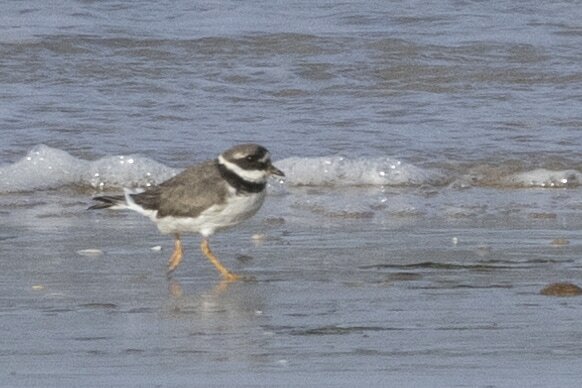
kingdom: Animalia
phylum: Chordata
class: Aves
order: Charadriiformes
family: Charadriidae
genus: Charadrius
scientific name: Charadrius hiaticula
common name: Common ringed plover
